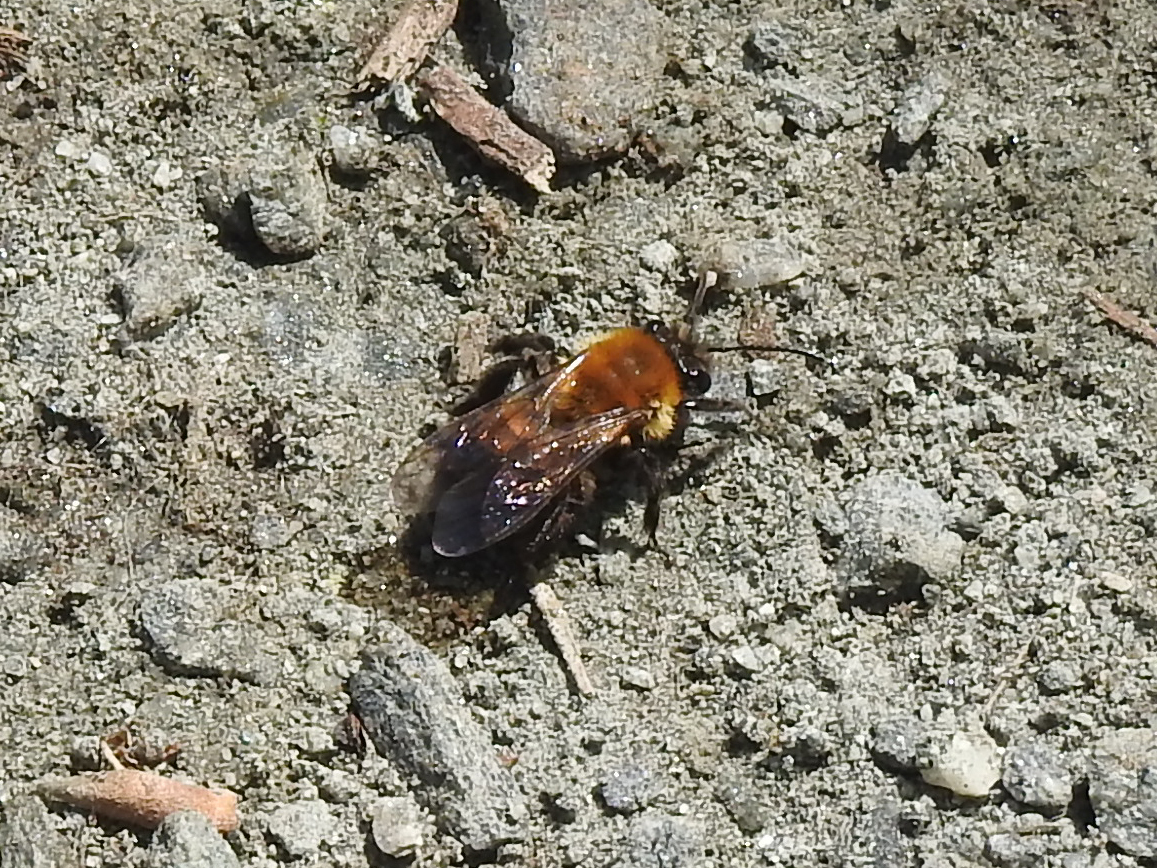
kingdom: Animalia
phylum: Arthropoda
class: Insecta
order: Hymenoptera
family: Andrenidae
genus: Andrena
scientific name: Andrena milwaukeensis
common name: Milwaukee mining bee
